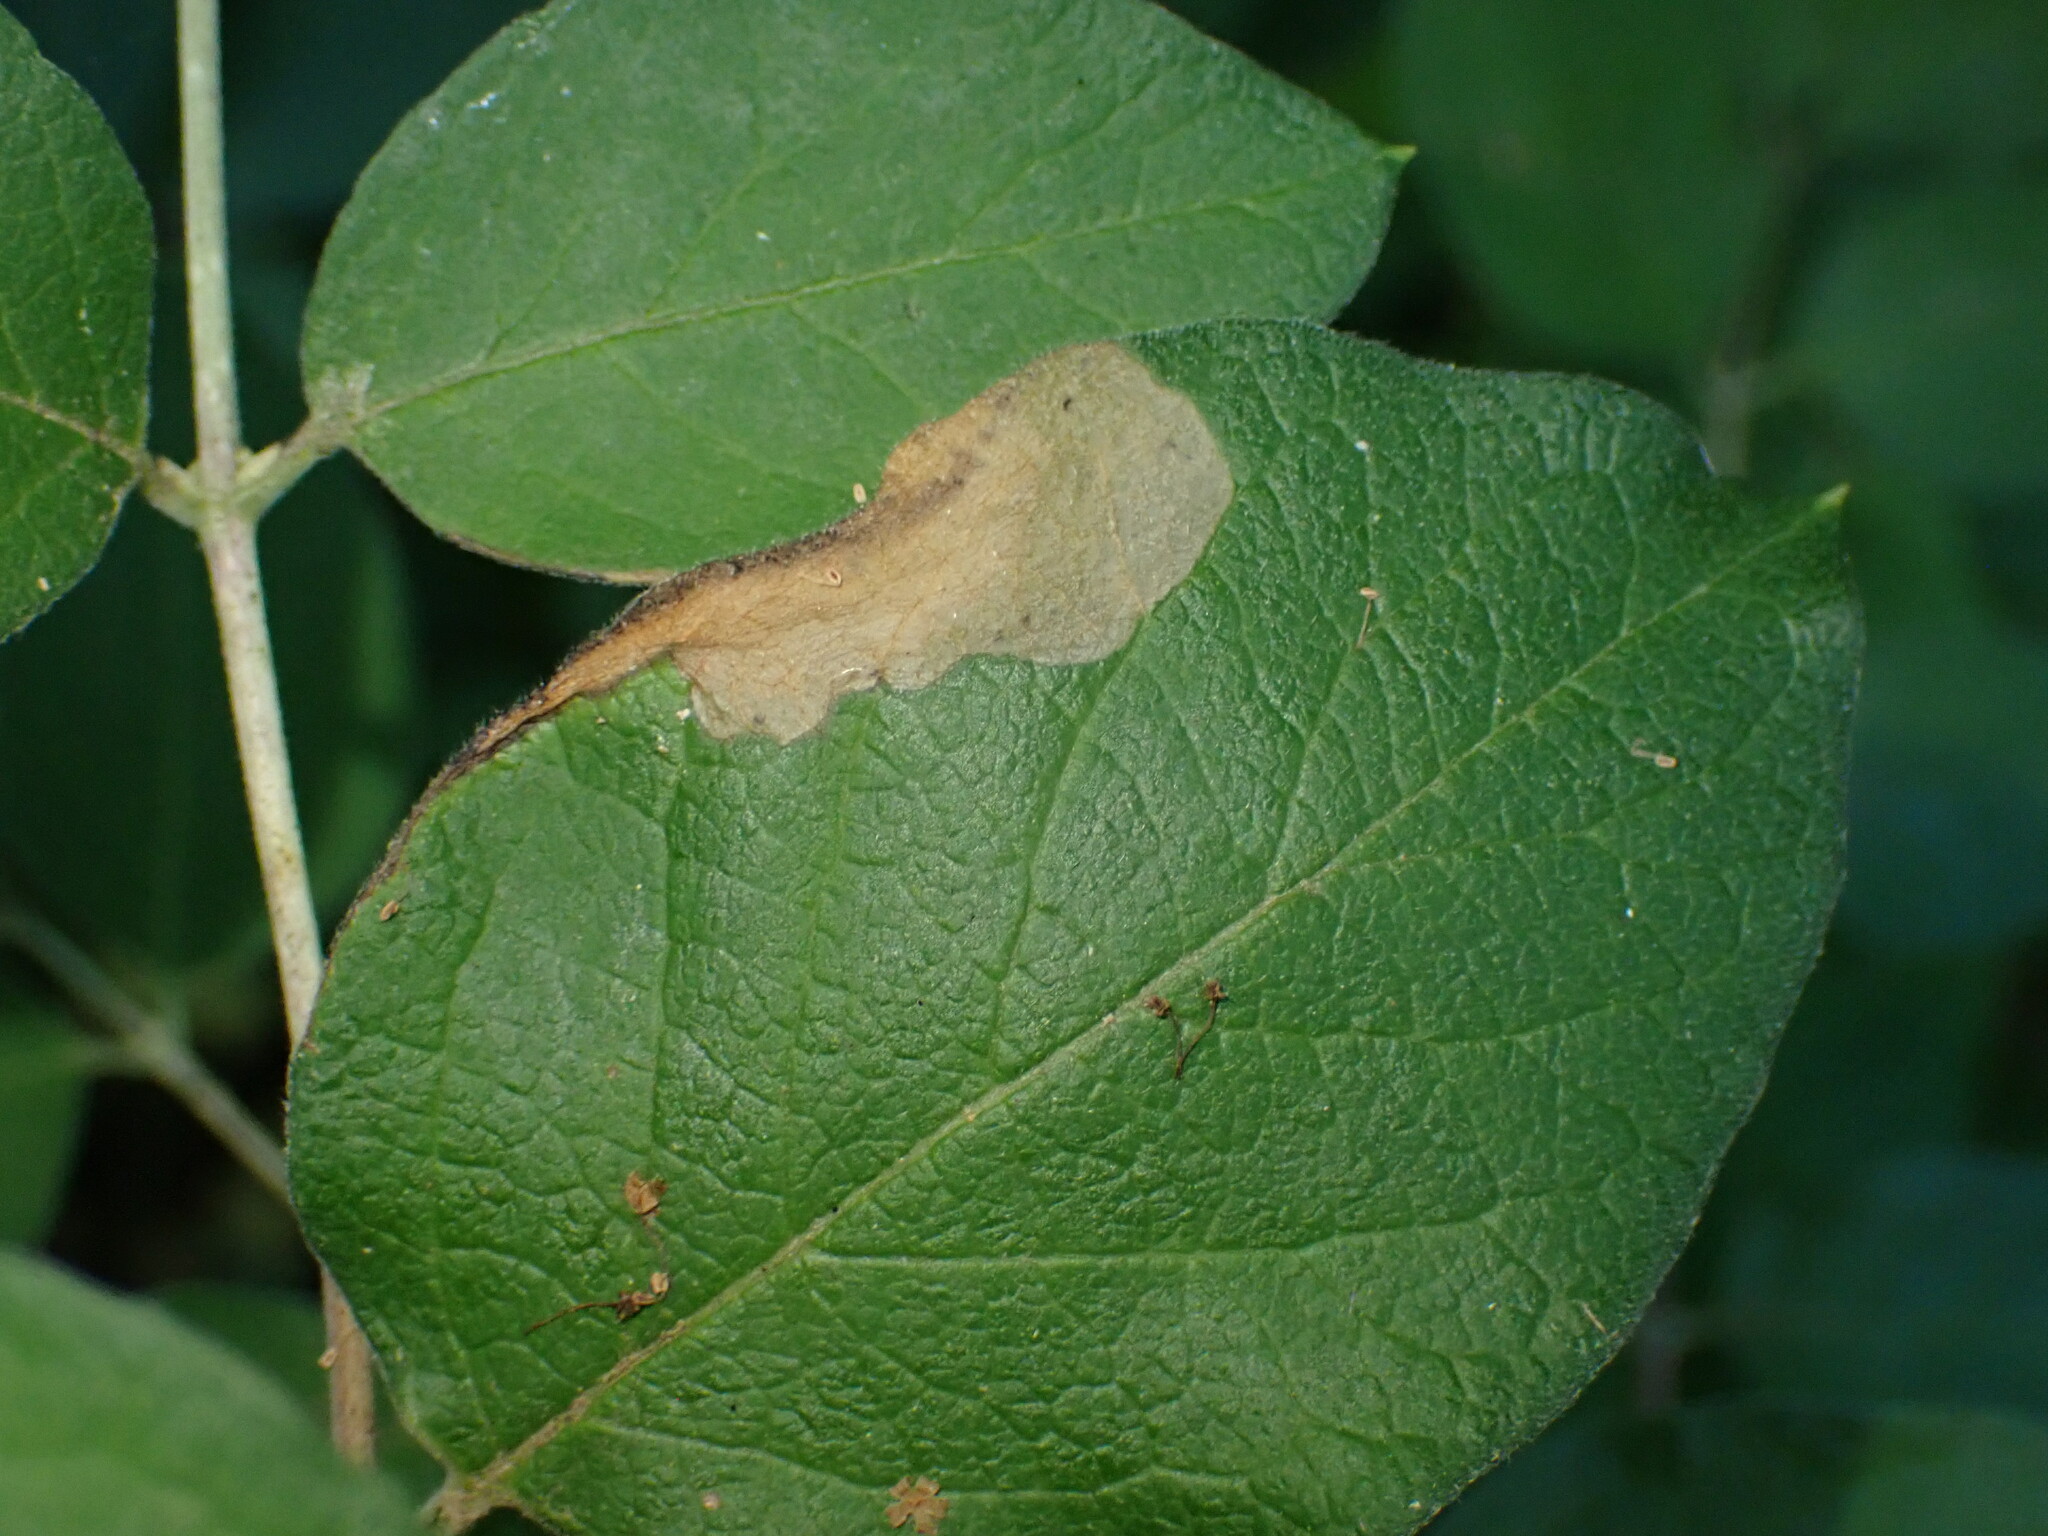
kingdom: Animalia
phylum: Arthropoda
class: Insecta
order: Lepidoptera
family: Elachistidae
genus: Perittia
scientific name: Perittia herrichiella
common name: Moth
